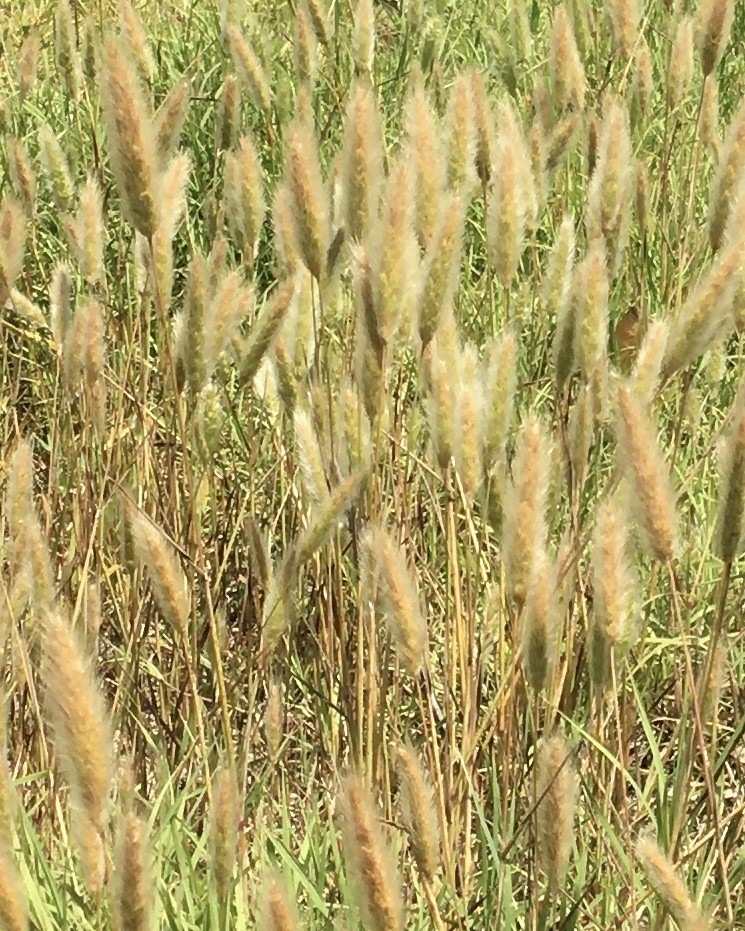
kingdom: Plantae
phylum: Tracheophyta
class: Liliopsida
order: Poales
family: Poaceae
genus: Polypogon
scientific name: Polypogon monspeliensis
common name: Annual rabbitsfoot grass
